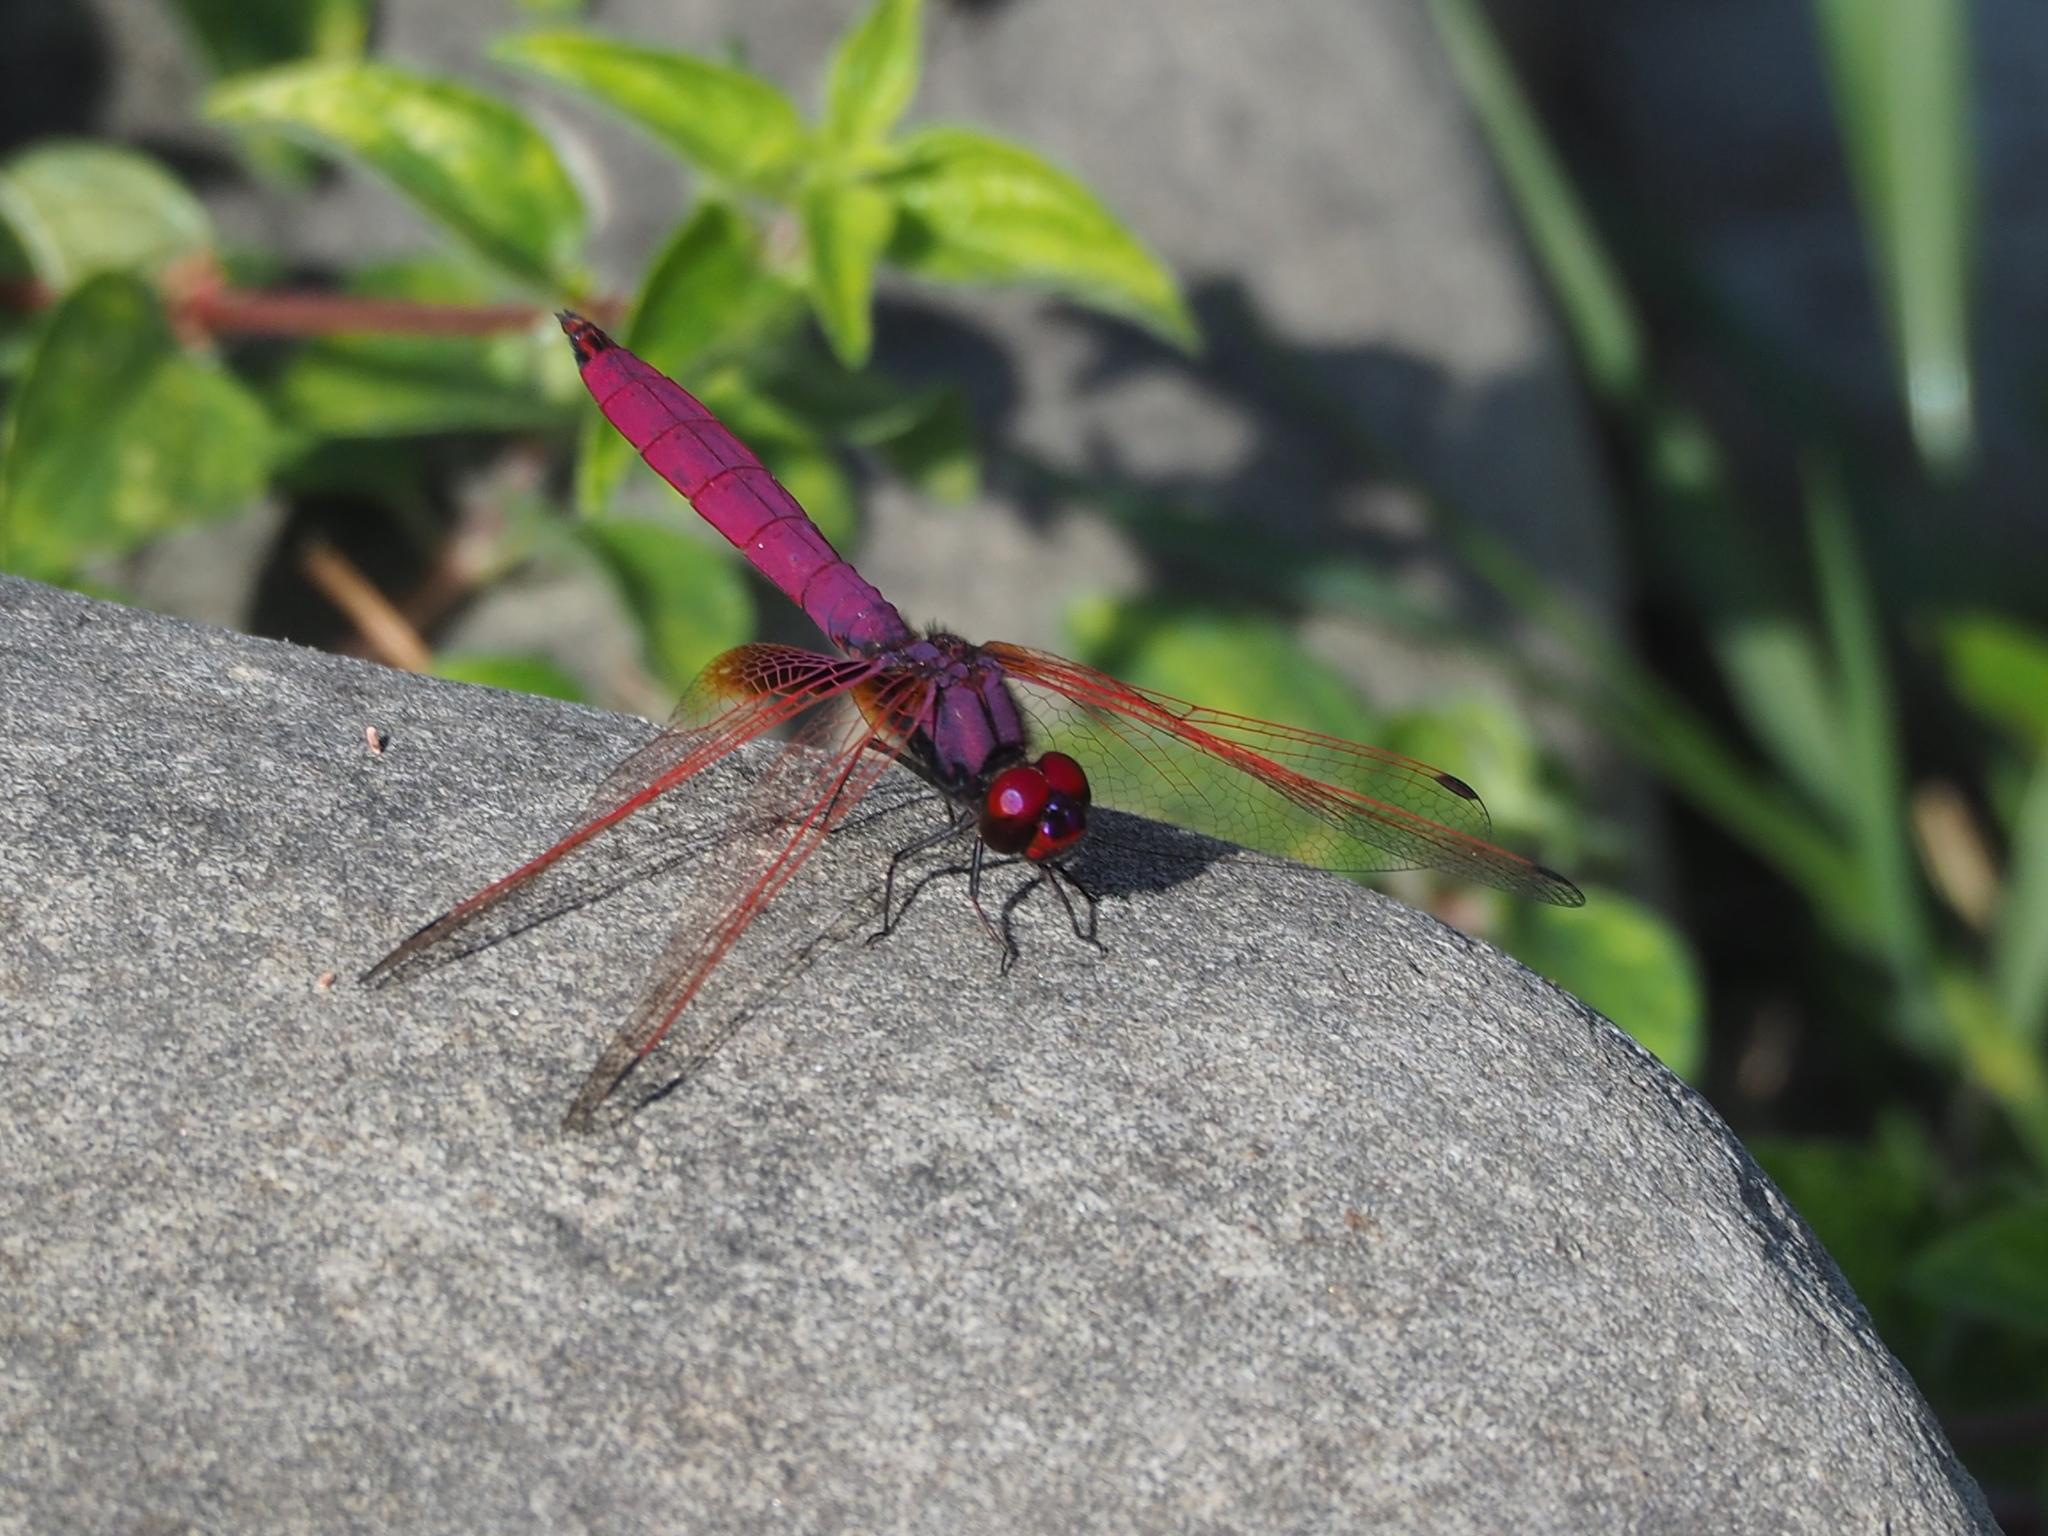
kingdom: Animalia
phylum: Arthropoda
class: Insecta
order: Odonata
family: Libellulidae
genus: Trithemis
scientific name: Trithemis aurora
